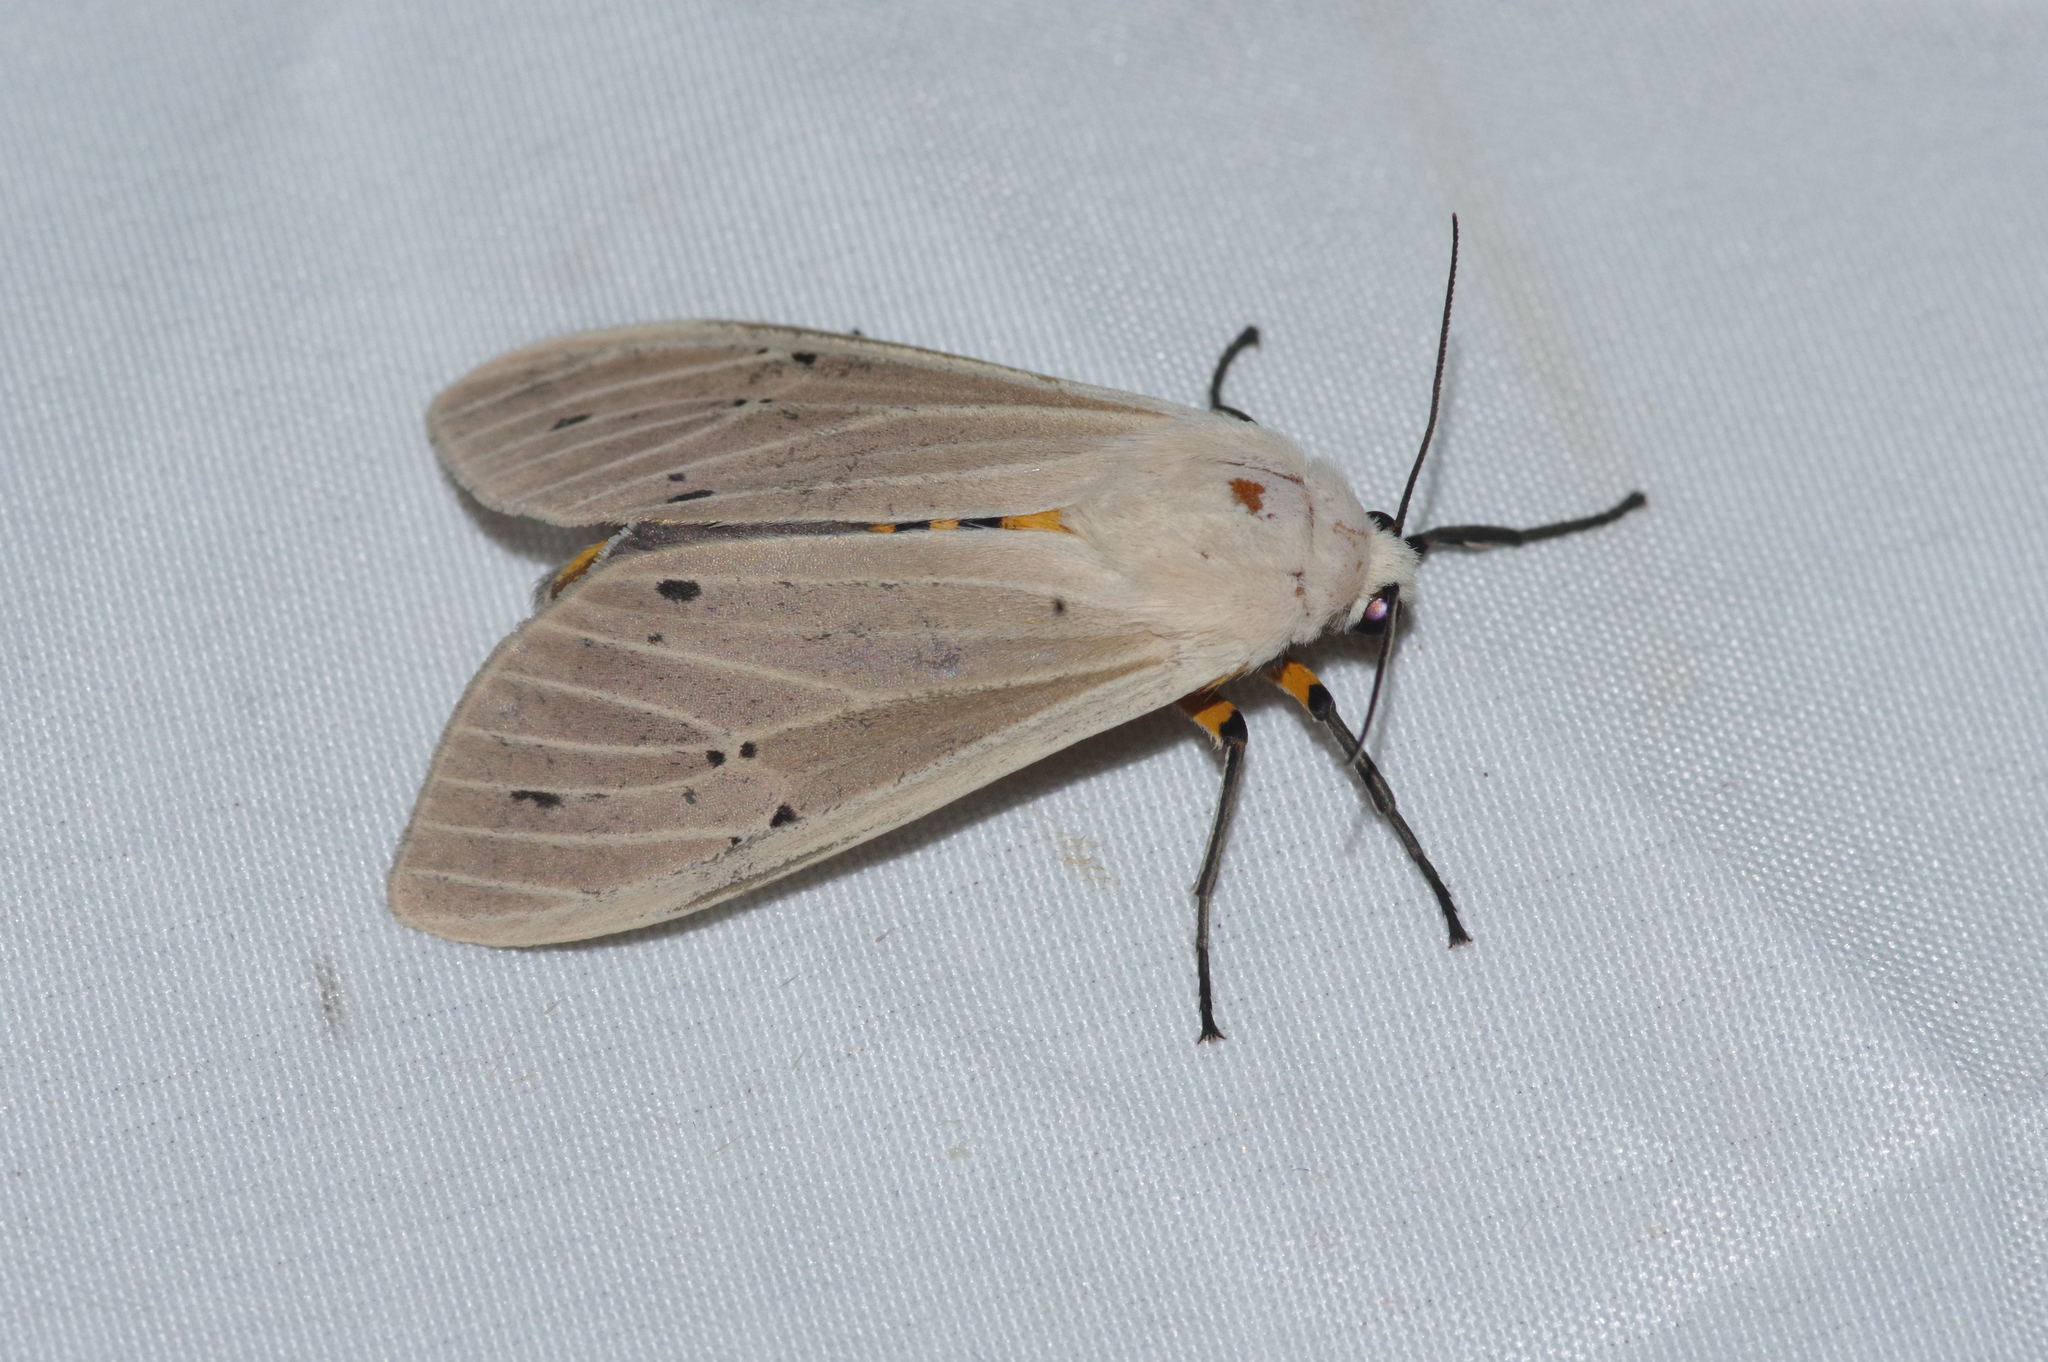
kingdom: Animalia
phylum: Arthropoda
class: Insecta
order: Lepidoptera
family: Erebidae
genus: Creatonotos
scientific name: Creatonotos transiens
